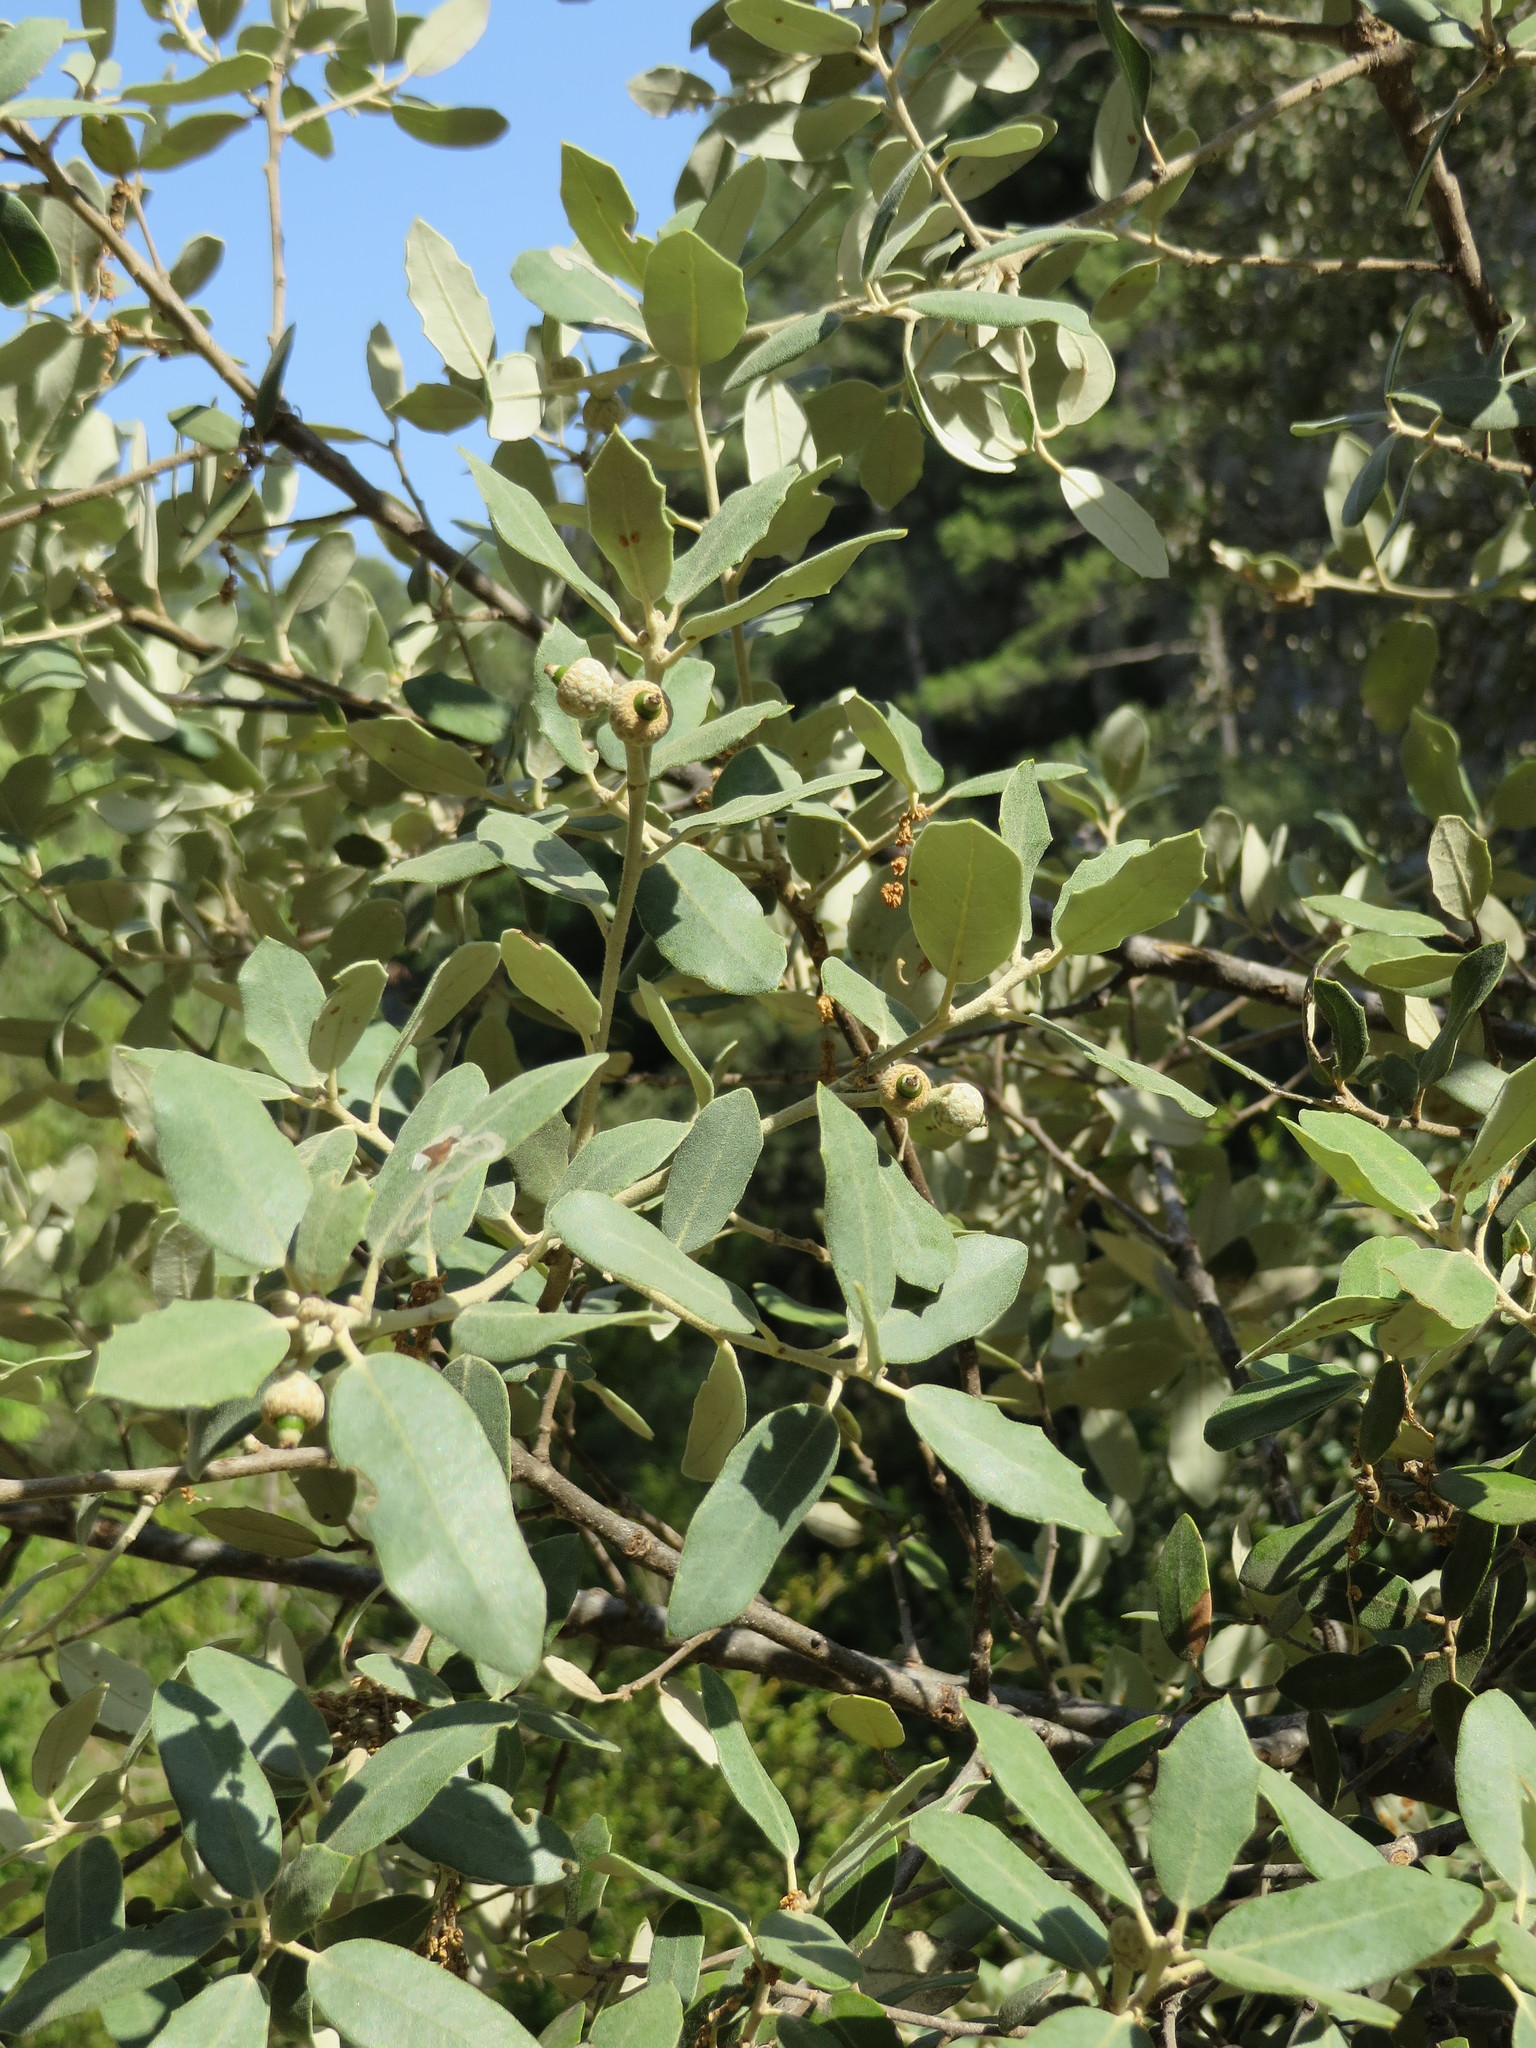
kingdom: Plantae
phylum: Tracheophyta
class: Magnoliopsida
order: Fagales
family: Fagaceae
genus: Quercus
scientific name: Quercus ilex
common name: Evergreen oak
